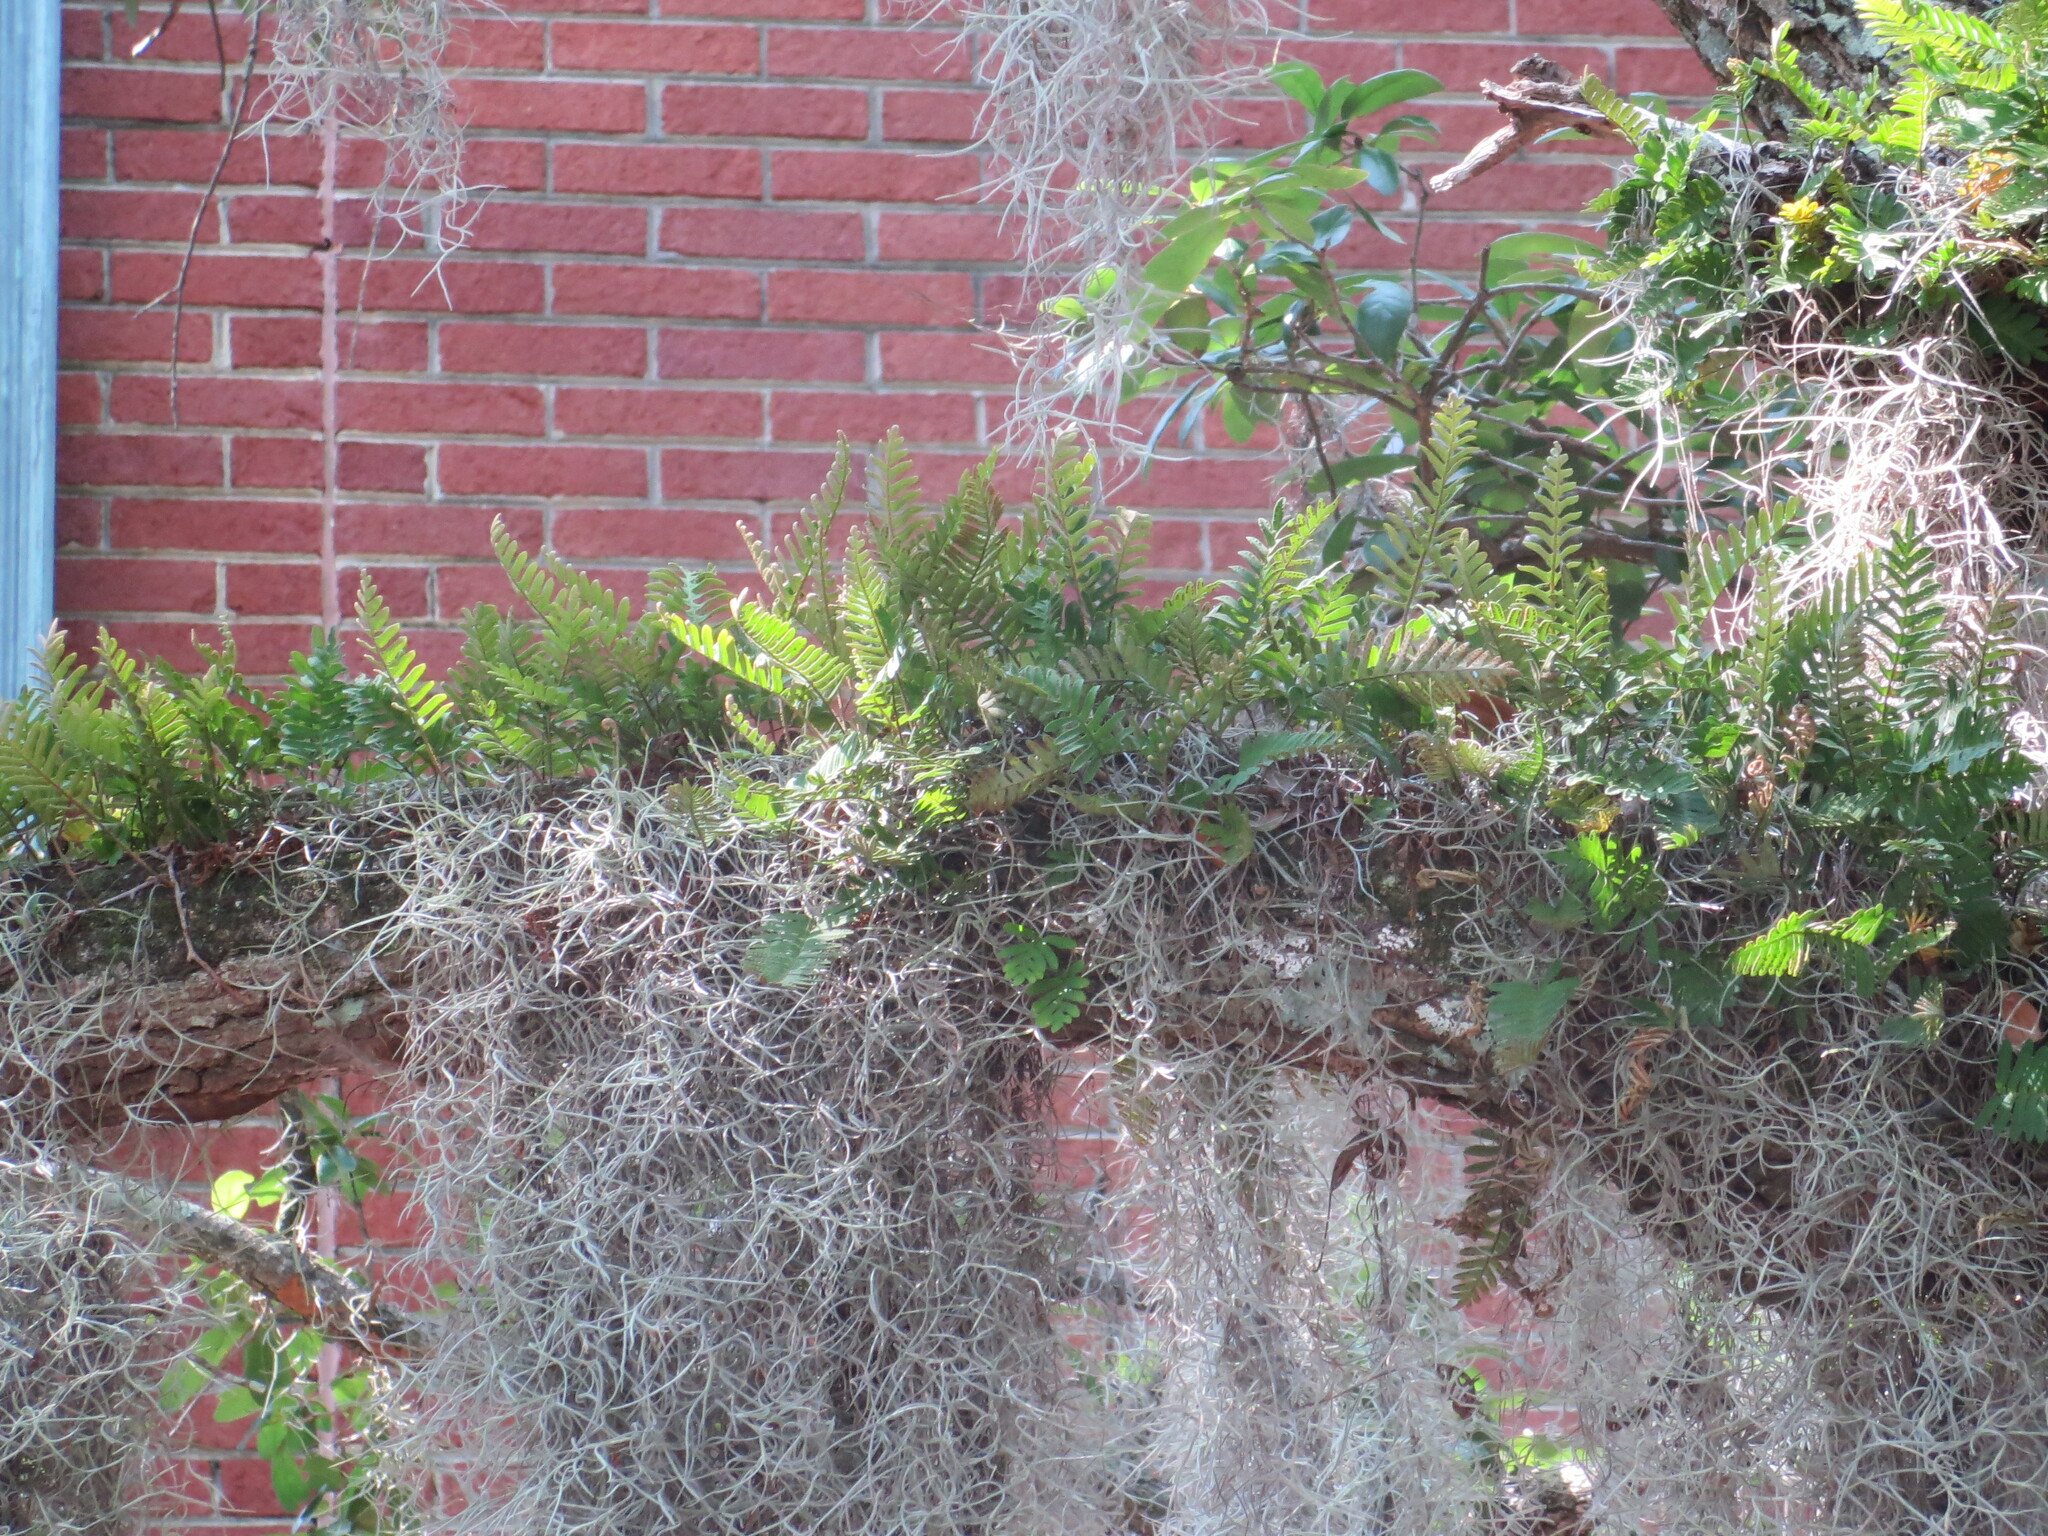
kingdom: Plantae
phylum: Tracheophyta
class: Liliopsida
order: Poales
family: Bromeliaceae
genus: Tillandsia
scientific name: Tillandsia usneoides
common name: Spanish moss
